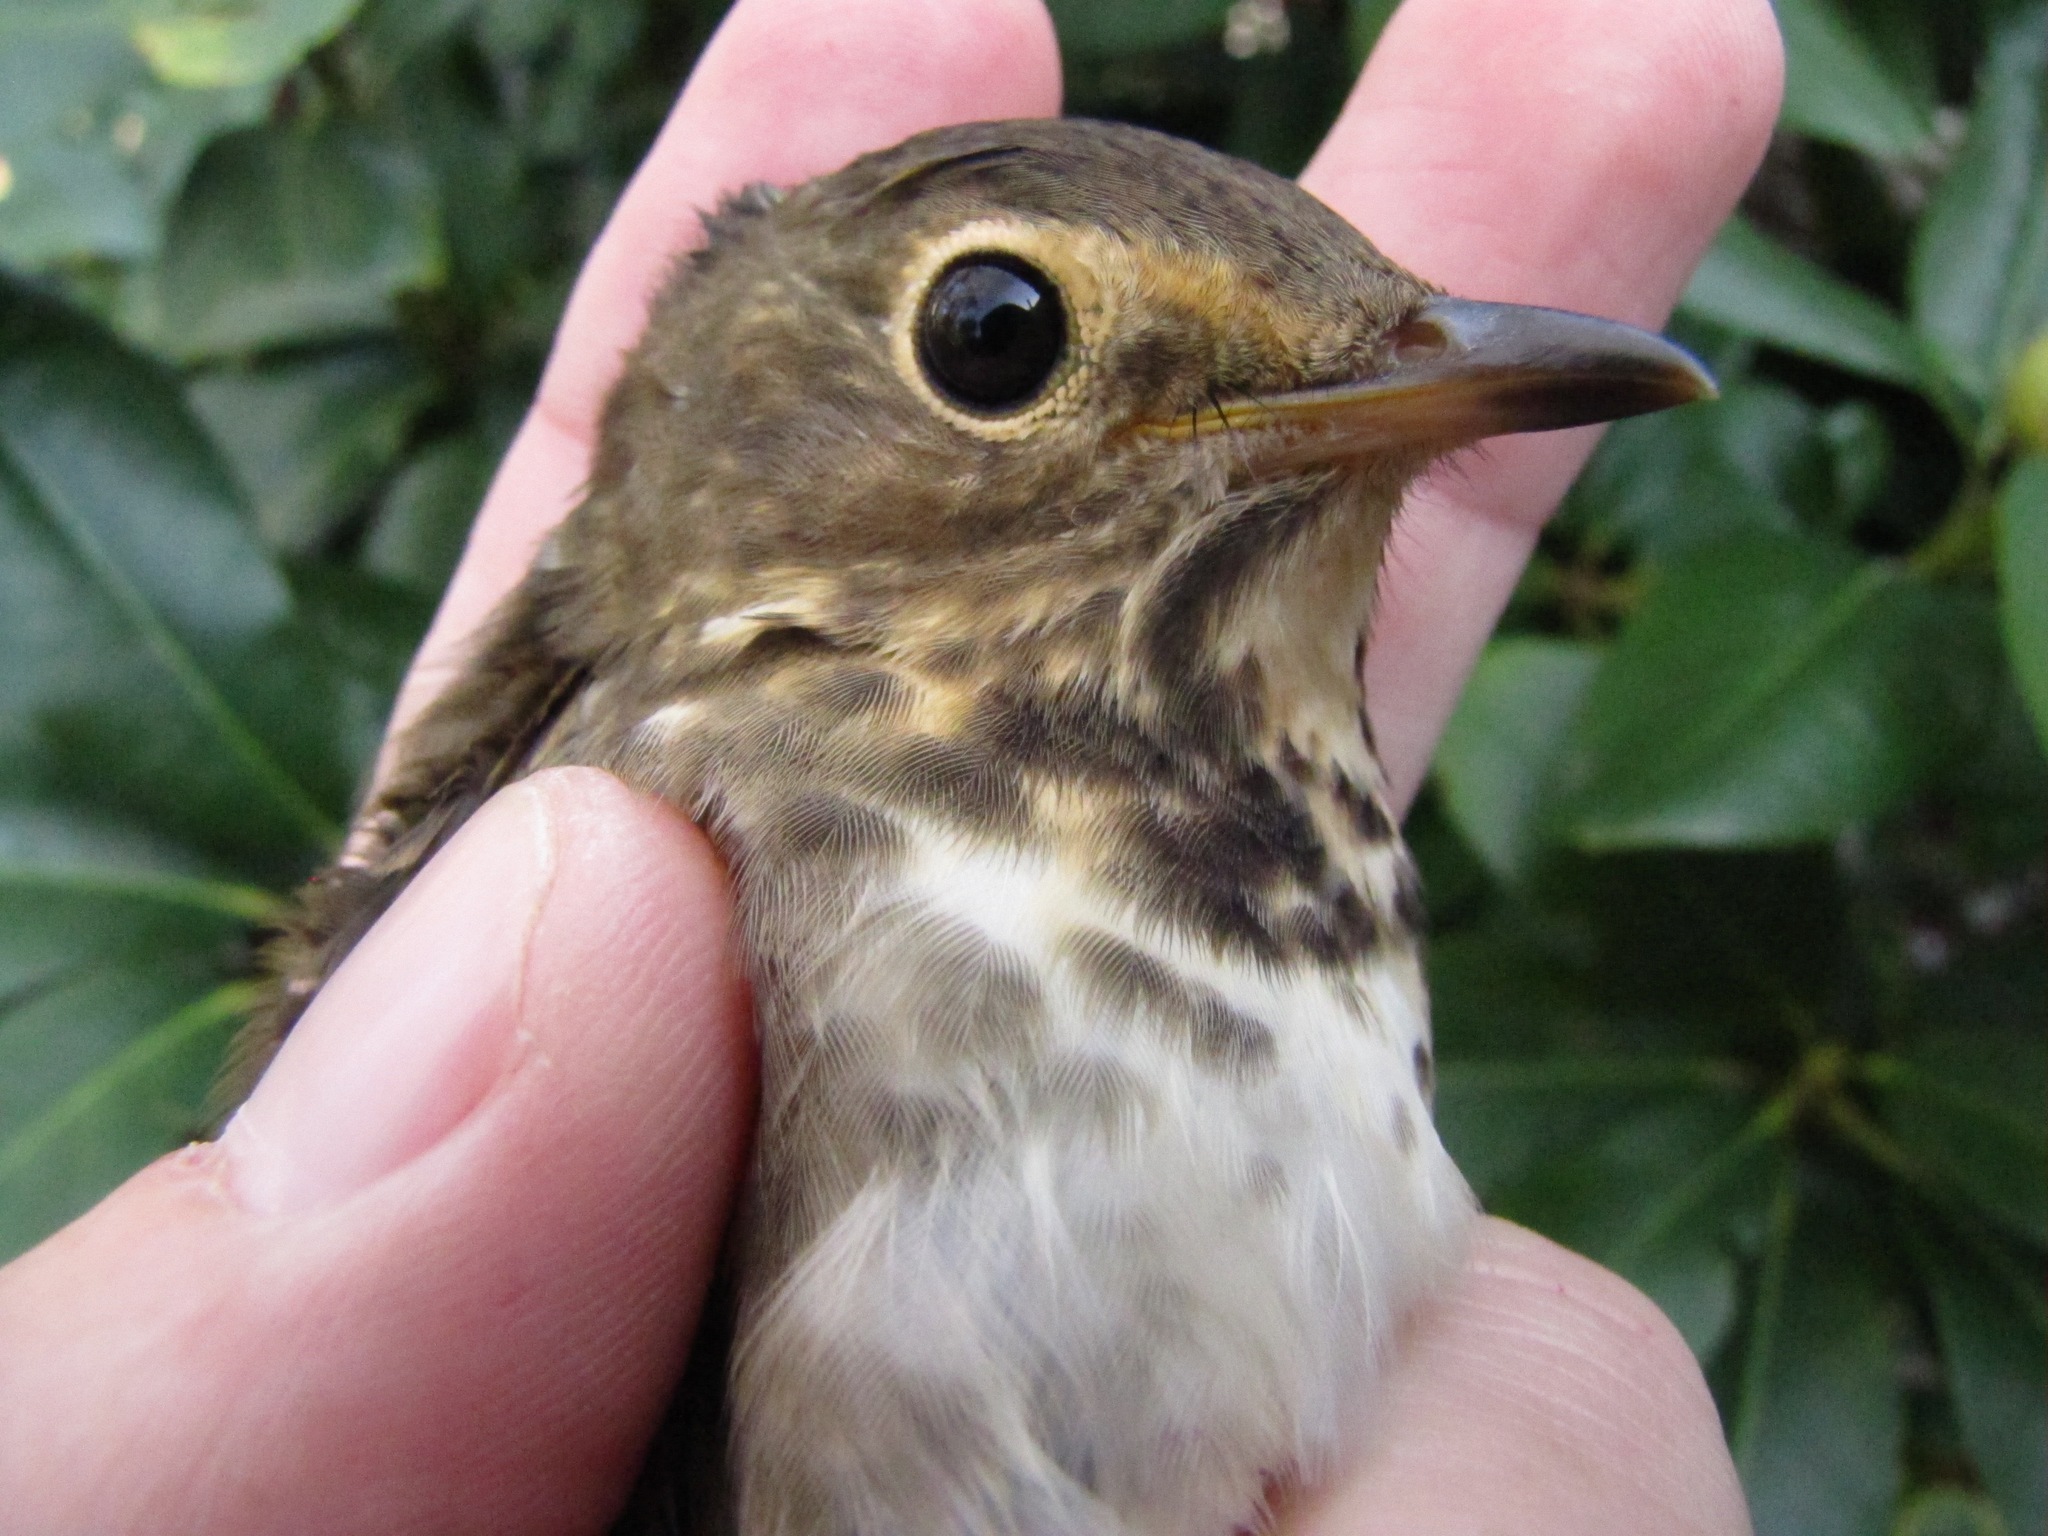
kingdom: Animalia
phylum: Chordata
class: Aves
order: Passeriformes
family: Turdidae
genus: Catharus
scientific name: Catharus ustulatus
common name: Swainson's thrush
